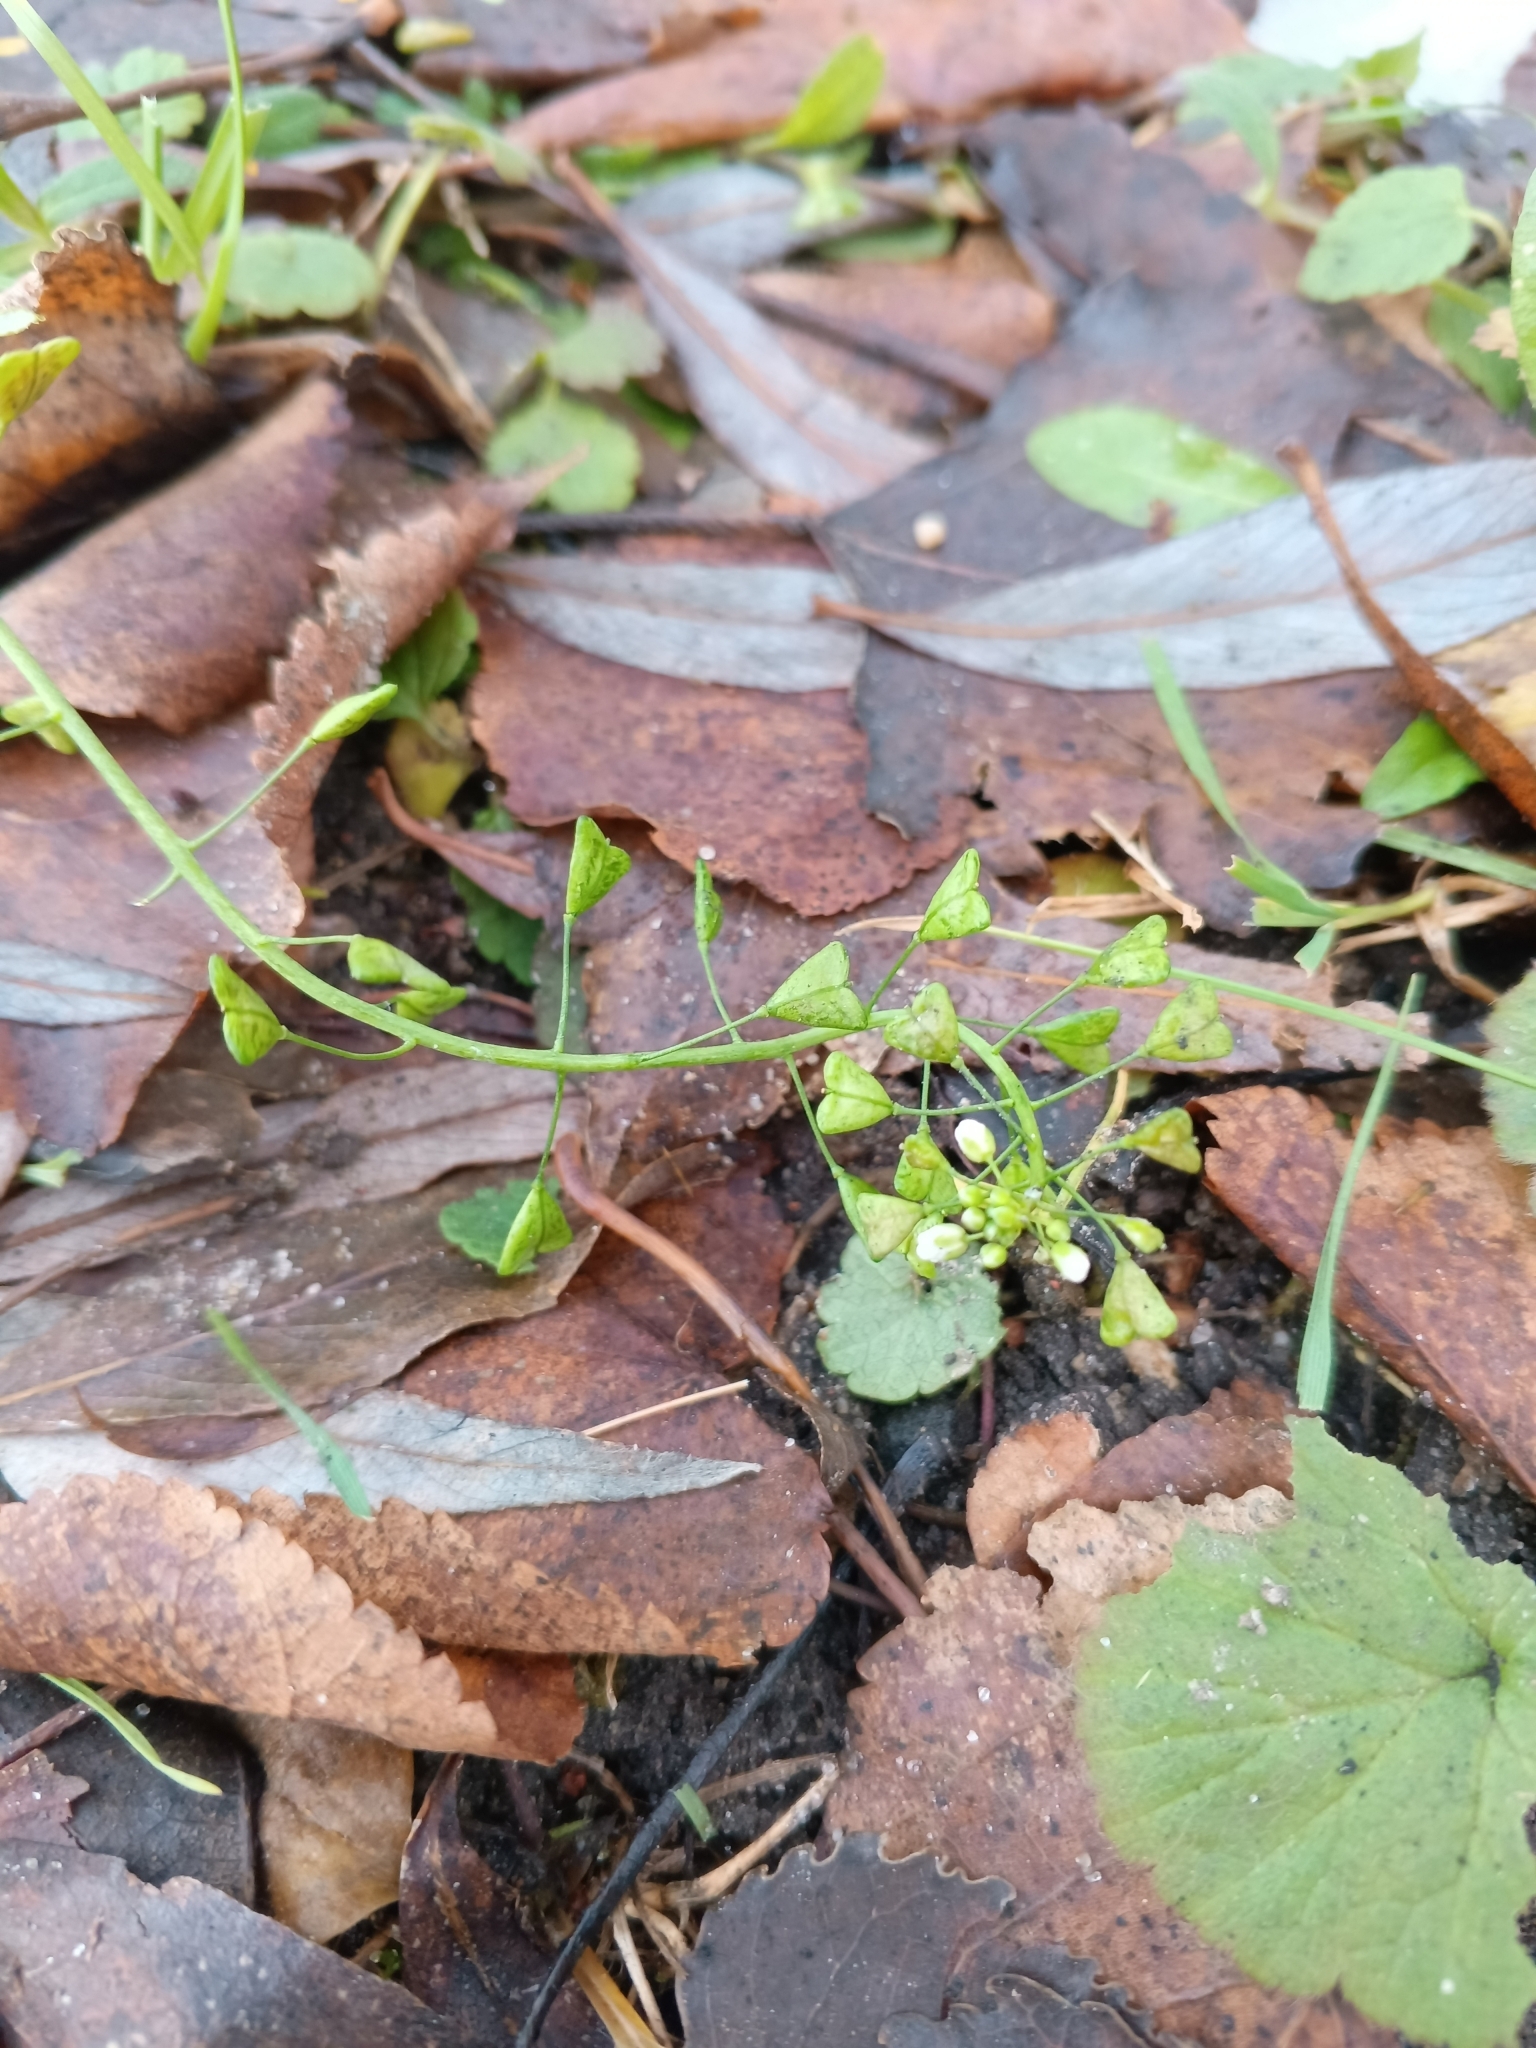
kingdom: Plantae
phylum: Tracheophyta
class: Magnoliopsida
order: Brassicales
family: Brassicaceae
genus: Capsella
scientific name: Capsella bursa-pastoris
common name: Shepherd's purse
